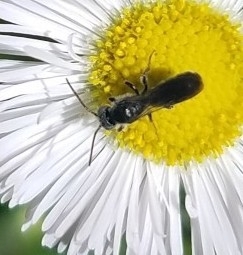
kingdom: Animalia
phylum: Arthropoda
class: Insecta
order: Hymenoptera
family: Megachilidae
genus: Chelostoma
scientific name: Chelostoma philadelphi
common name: Mock-orange scissor bee
